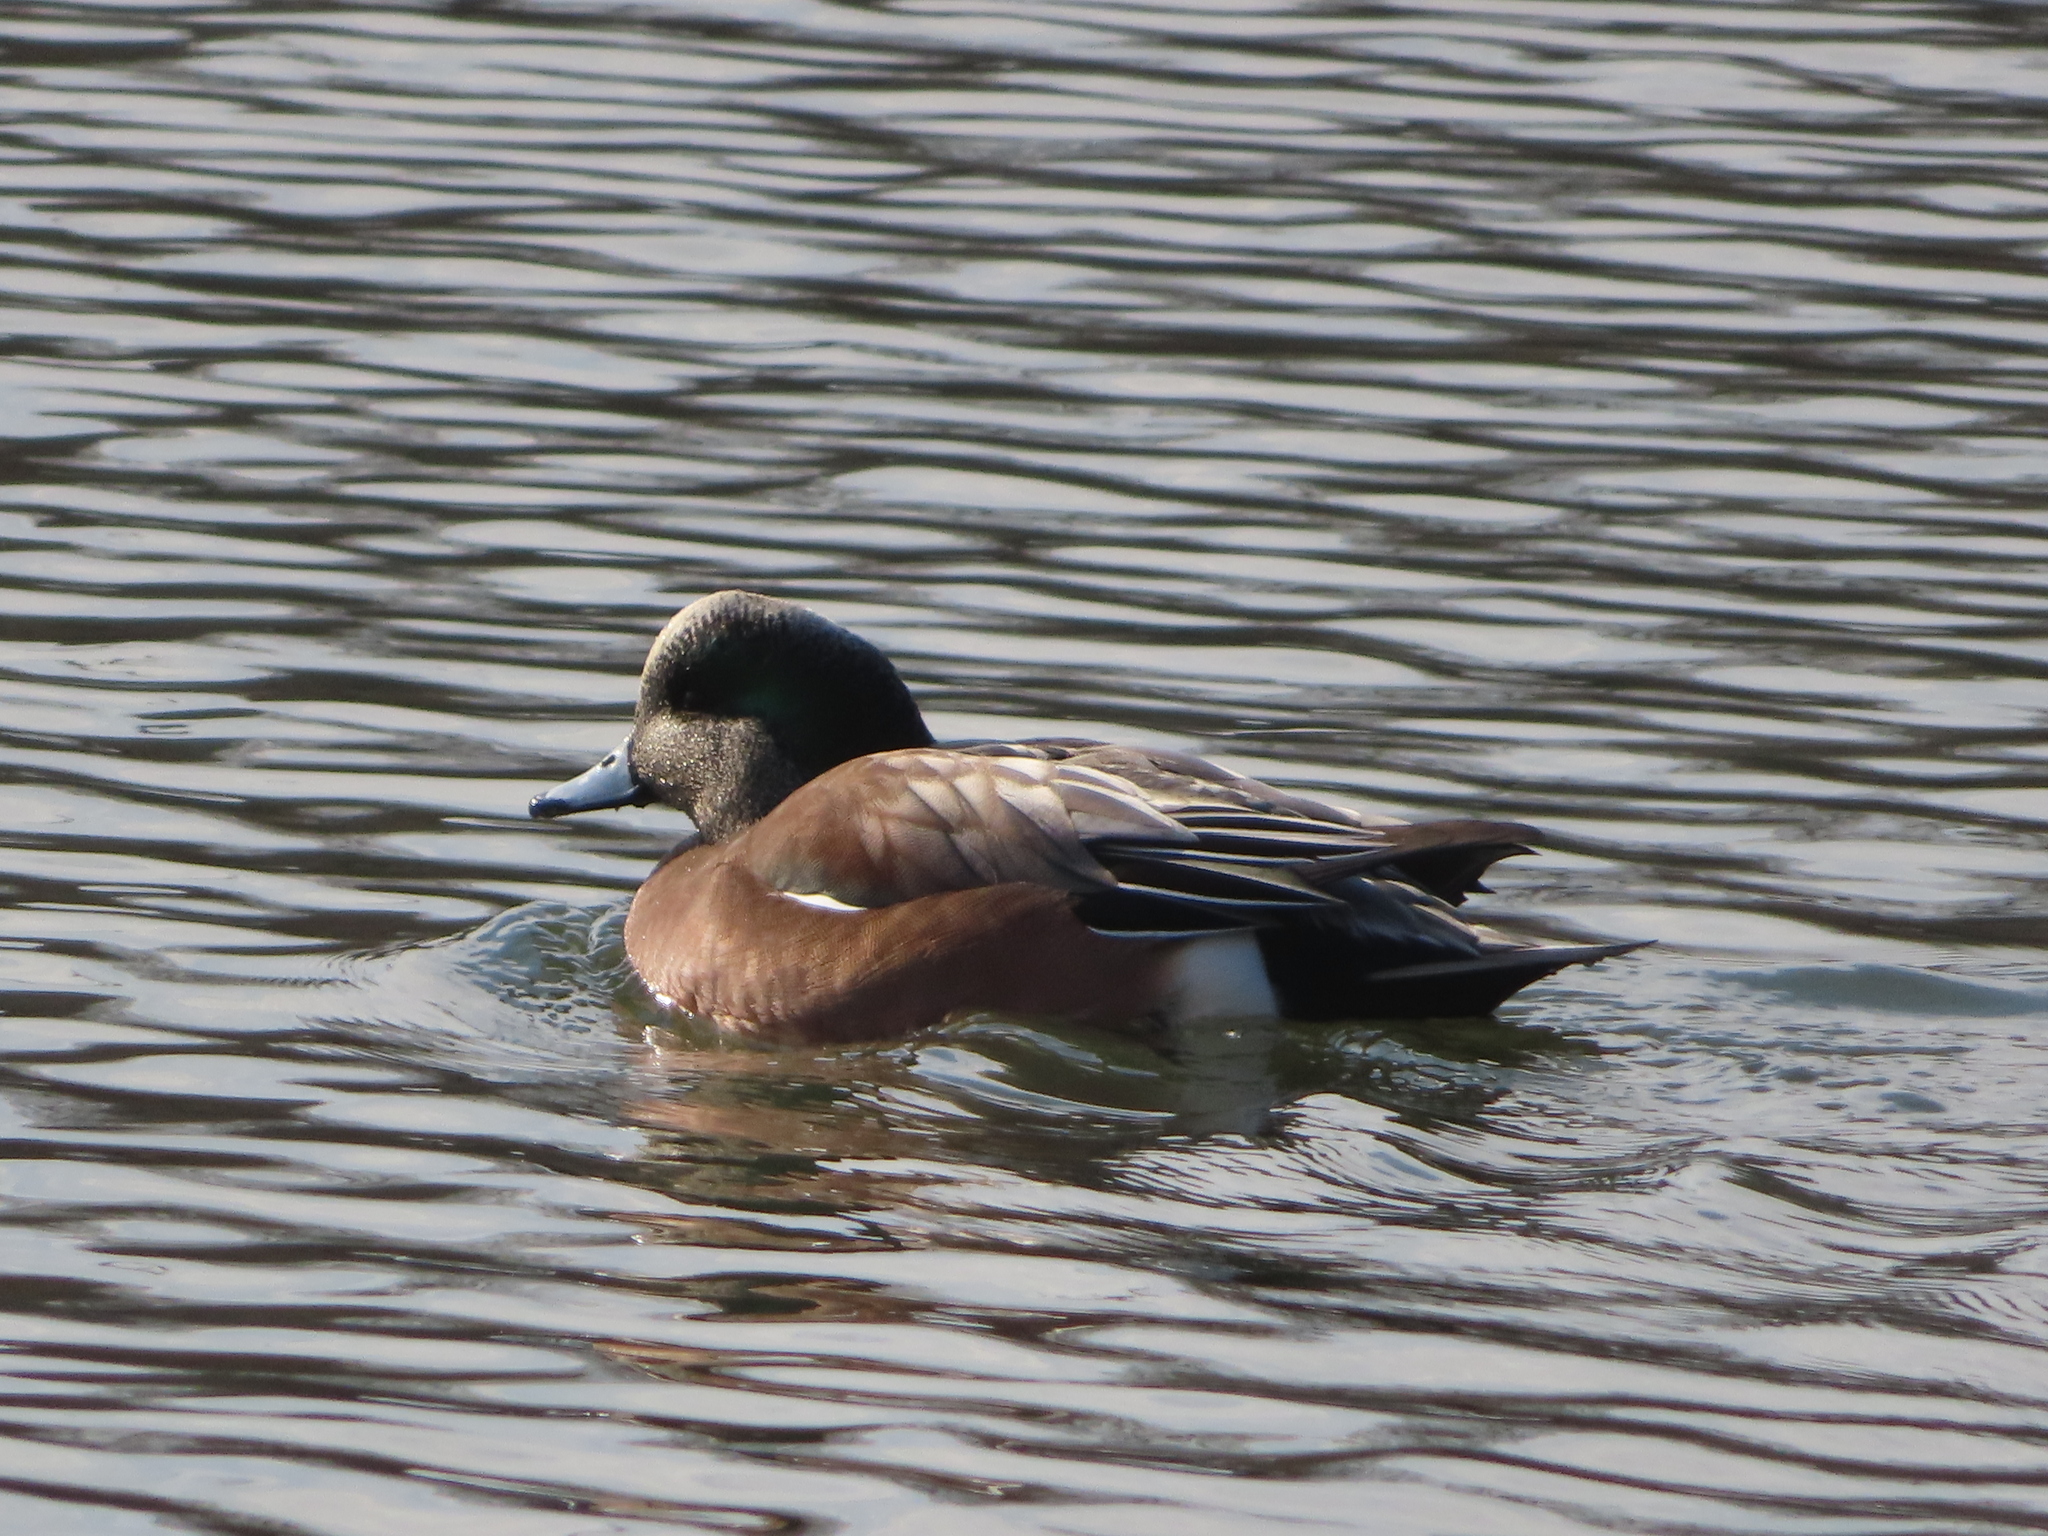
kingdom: Animalia
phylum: Chordata
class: Aves
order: Anseriformes
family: Anatidae
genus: Mareca
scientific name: Mareca americana
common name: American wigeon
